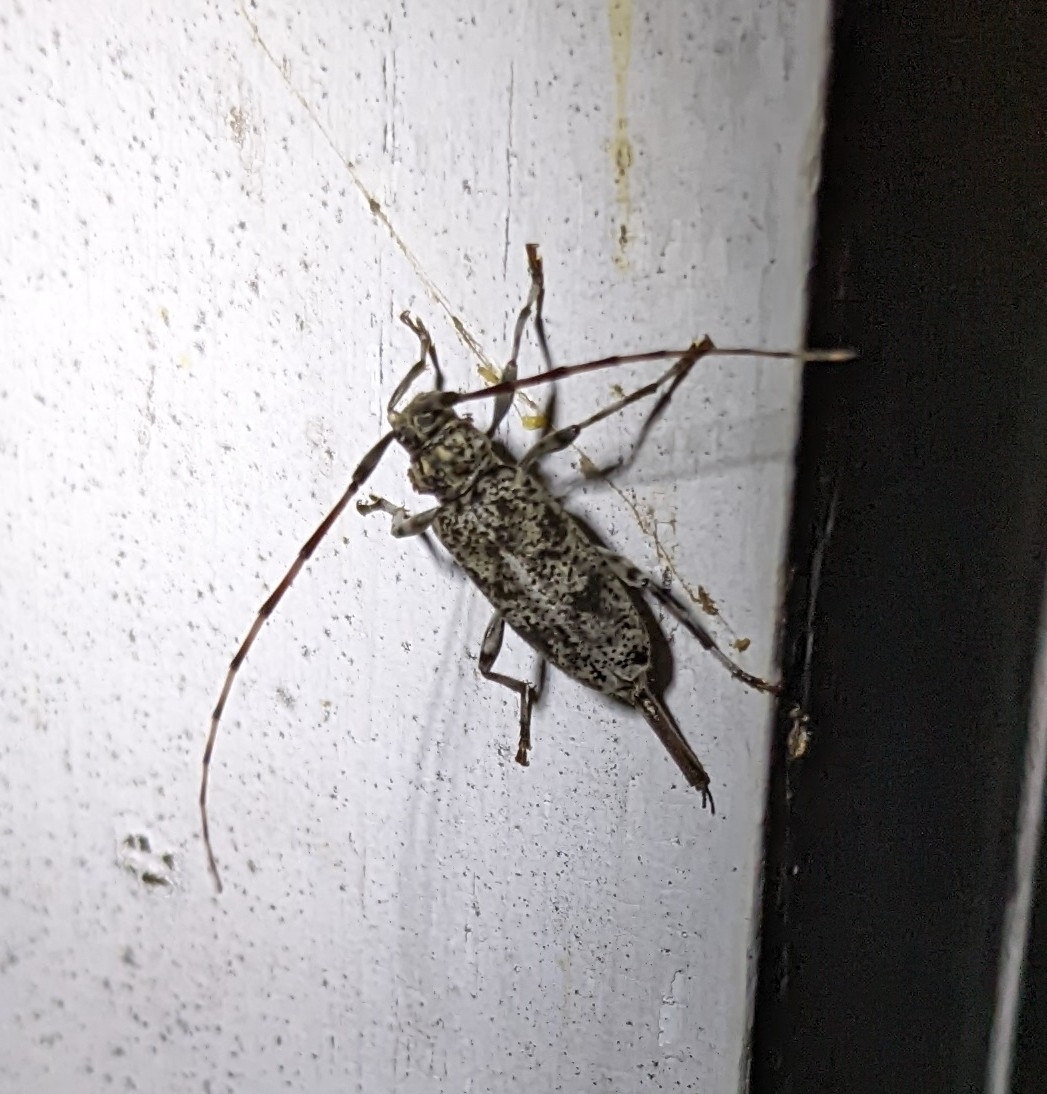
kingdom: Animalia
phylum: Arthropoda
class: Insecta
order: Coleoptera
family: Cerambycidae
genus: Graphisurus
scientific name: Graphisurus fasciatus
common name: Banded graphisurus
